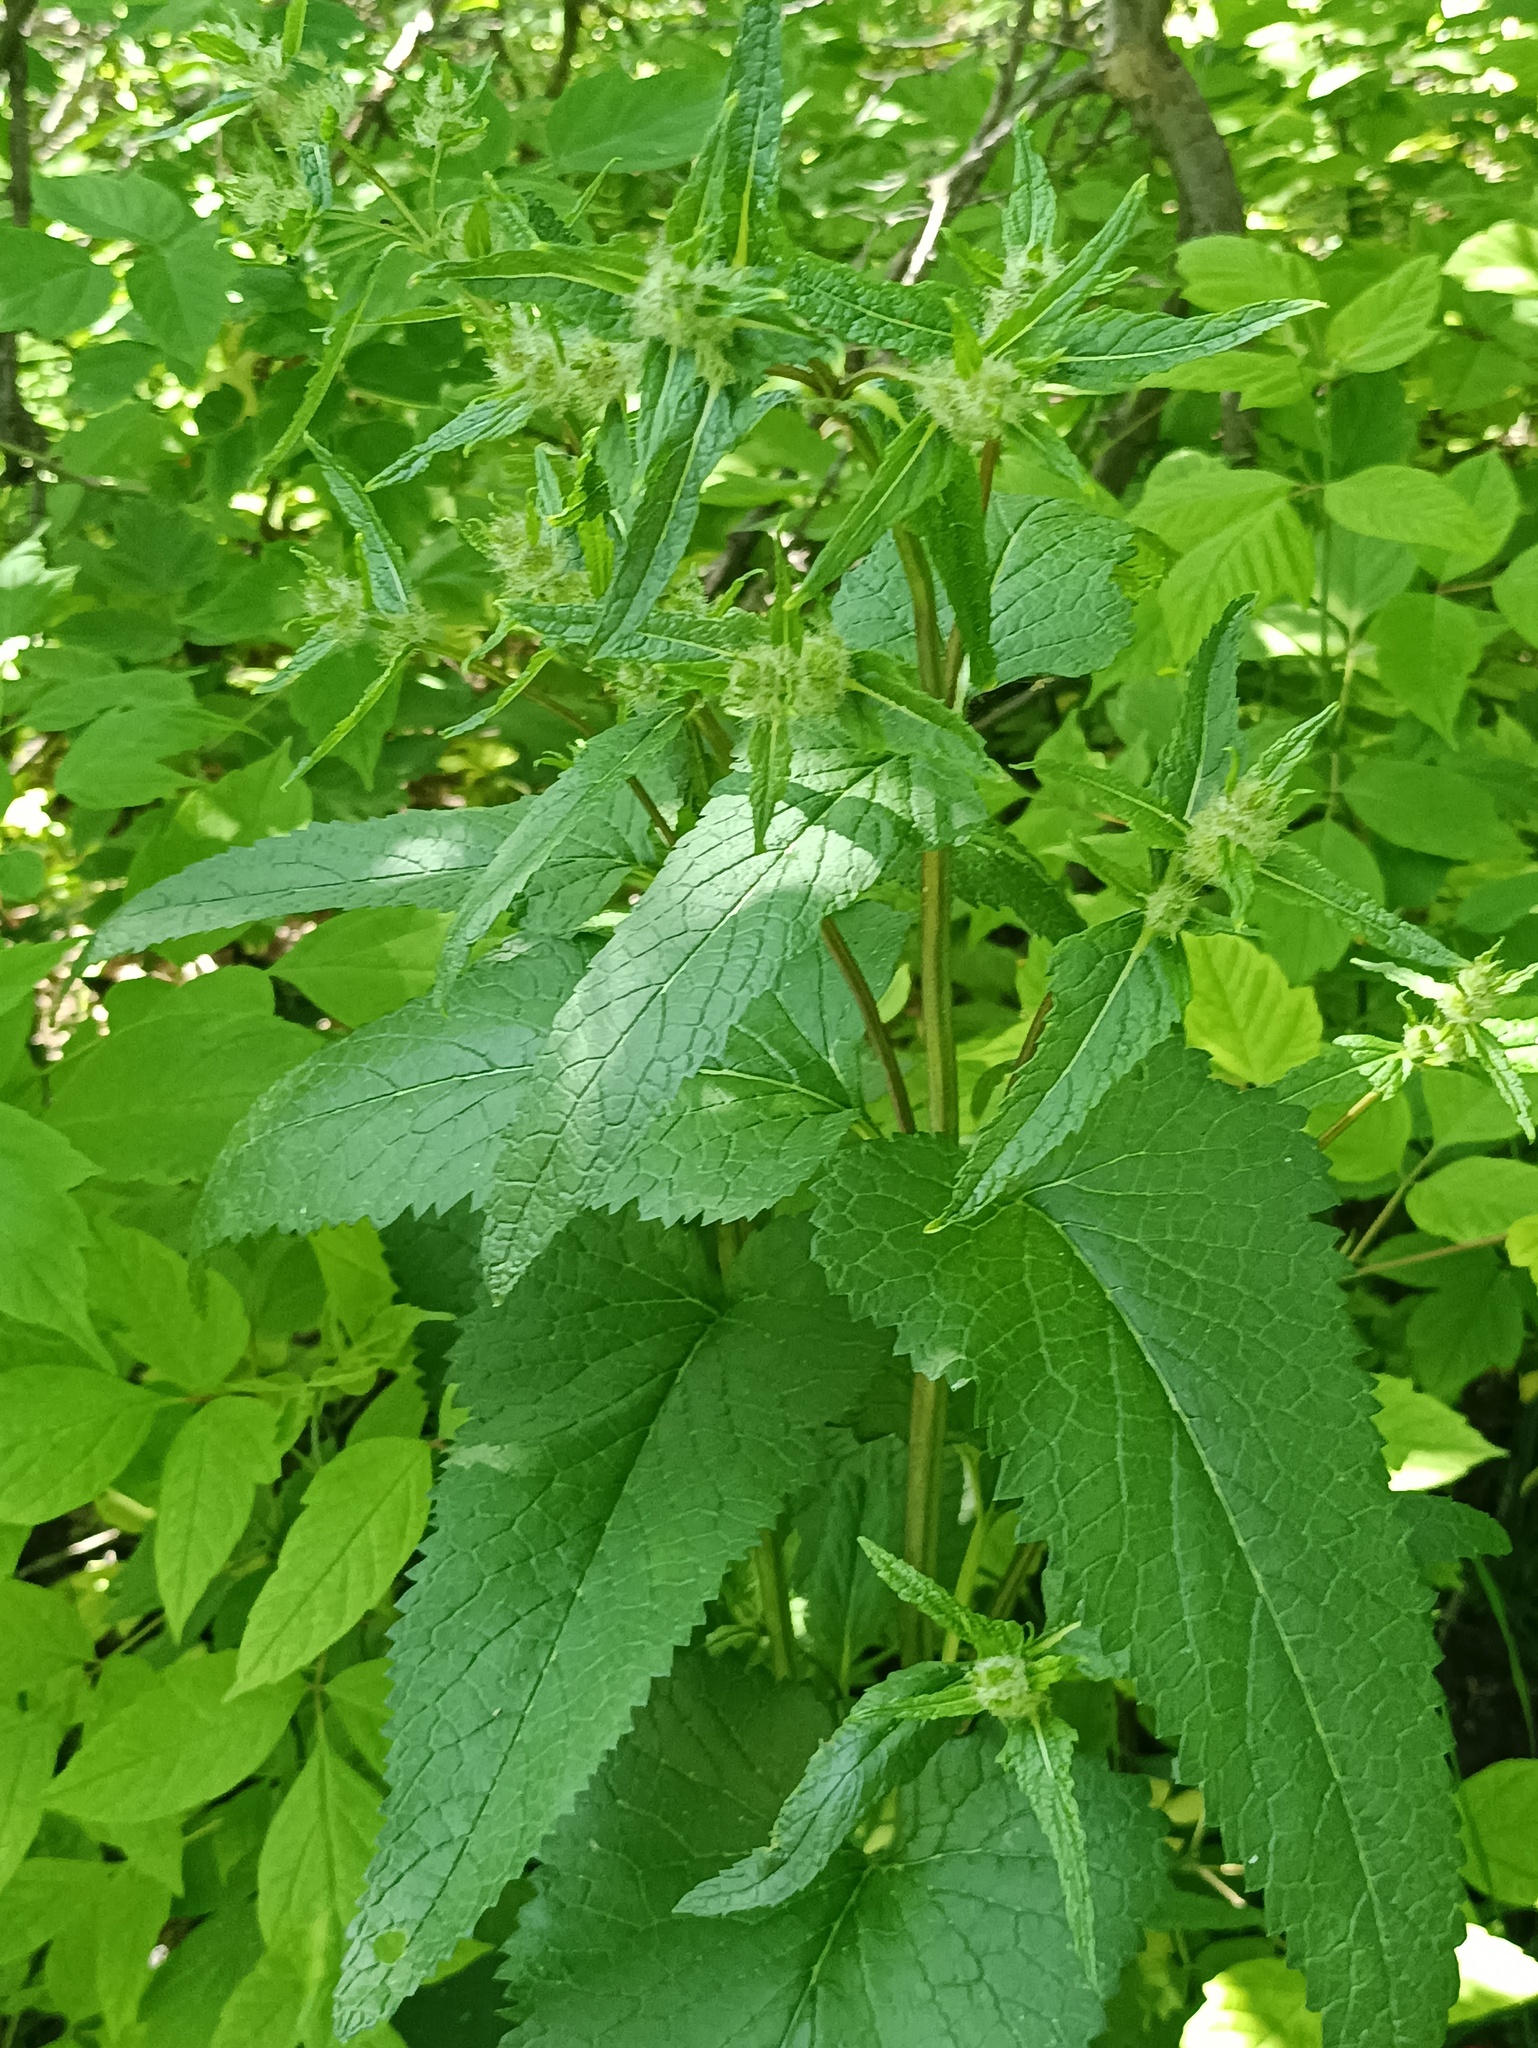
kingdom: Plantae
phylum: Tracheophyta
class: Magnoliopsida
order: Lamiales
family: Lamiaceae
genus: Phlomoides
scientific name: Phlomoides tuberosa
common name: Tuberous jerusalem sage
